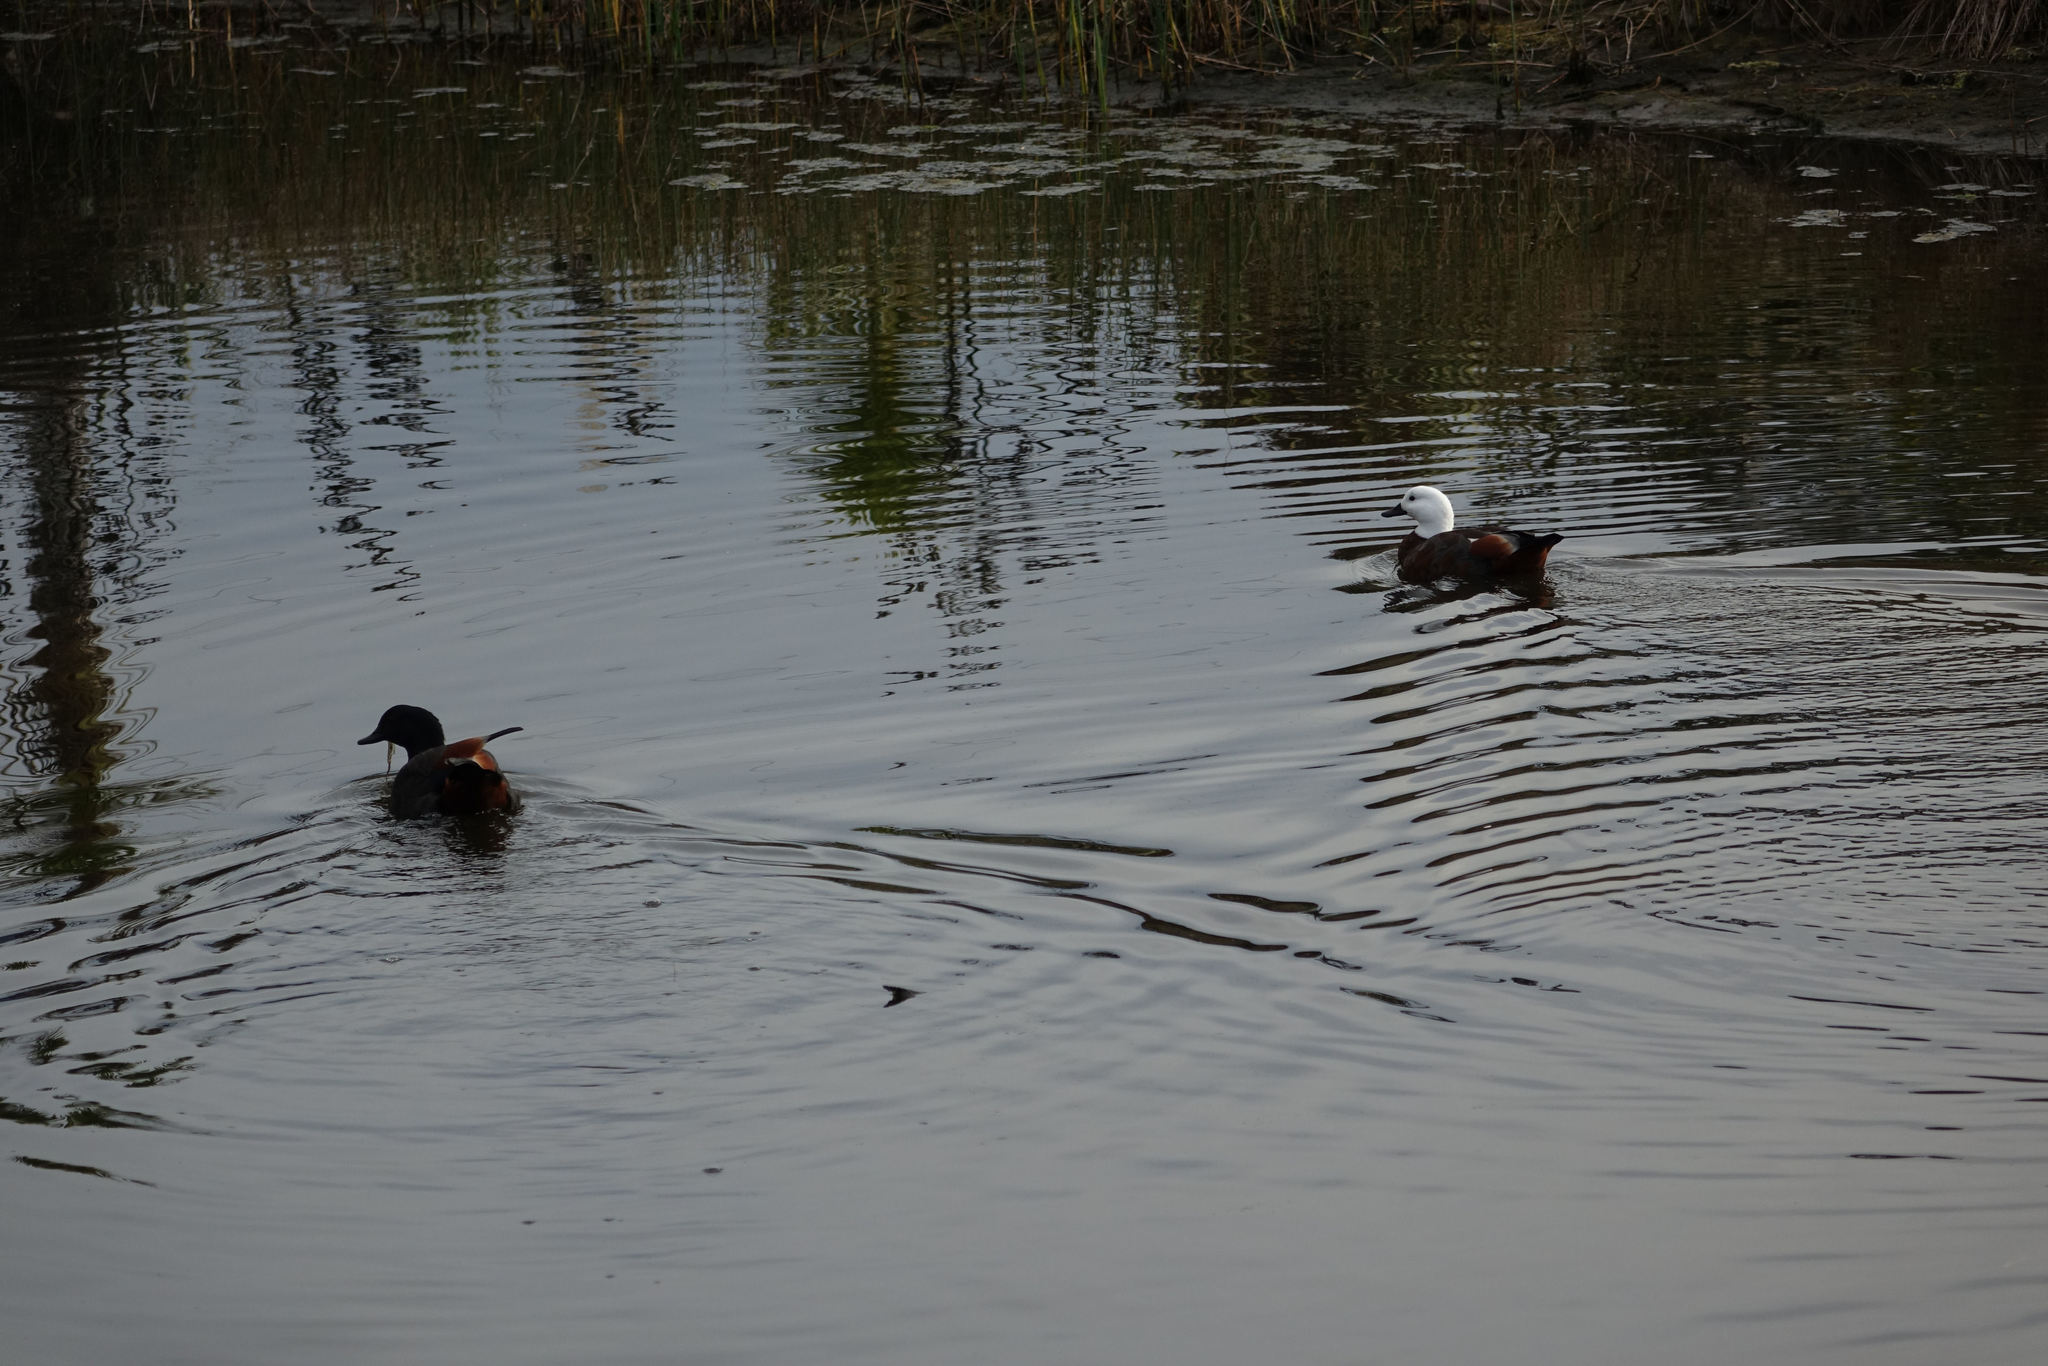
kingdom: Animalia
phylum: Chordata
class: Aves
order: Anseriformes
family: Anatidae
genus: Tadorna
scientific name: Tadorna variegata
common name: Paradise shelduck
